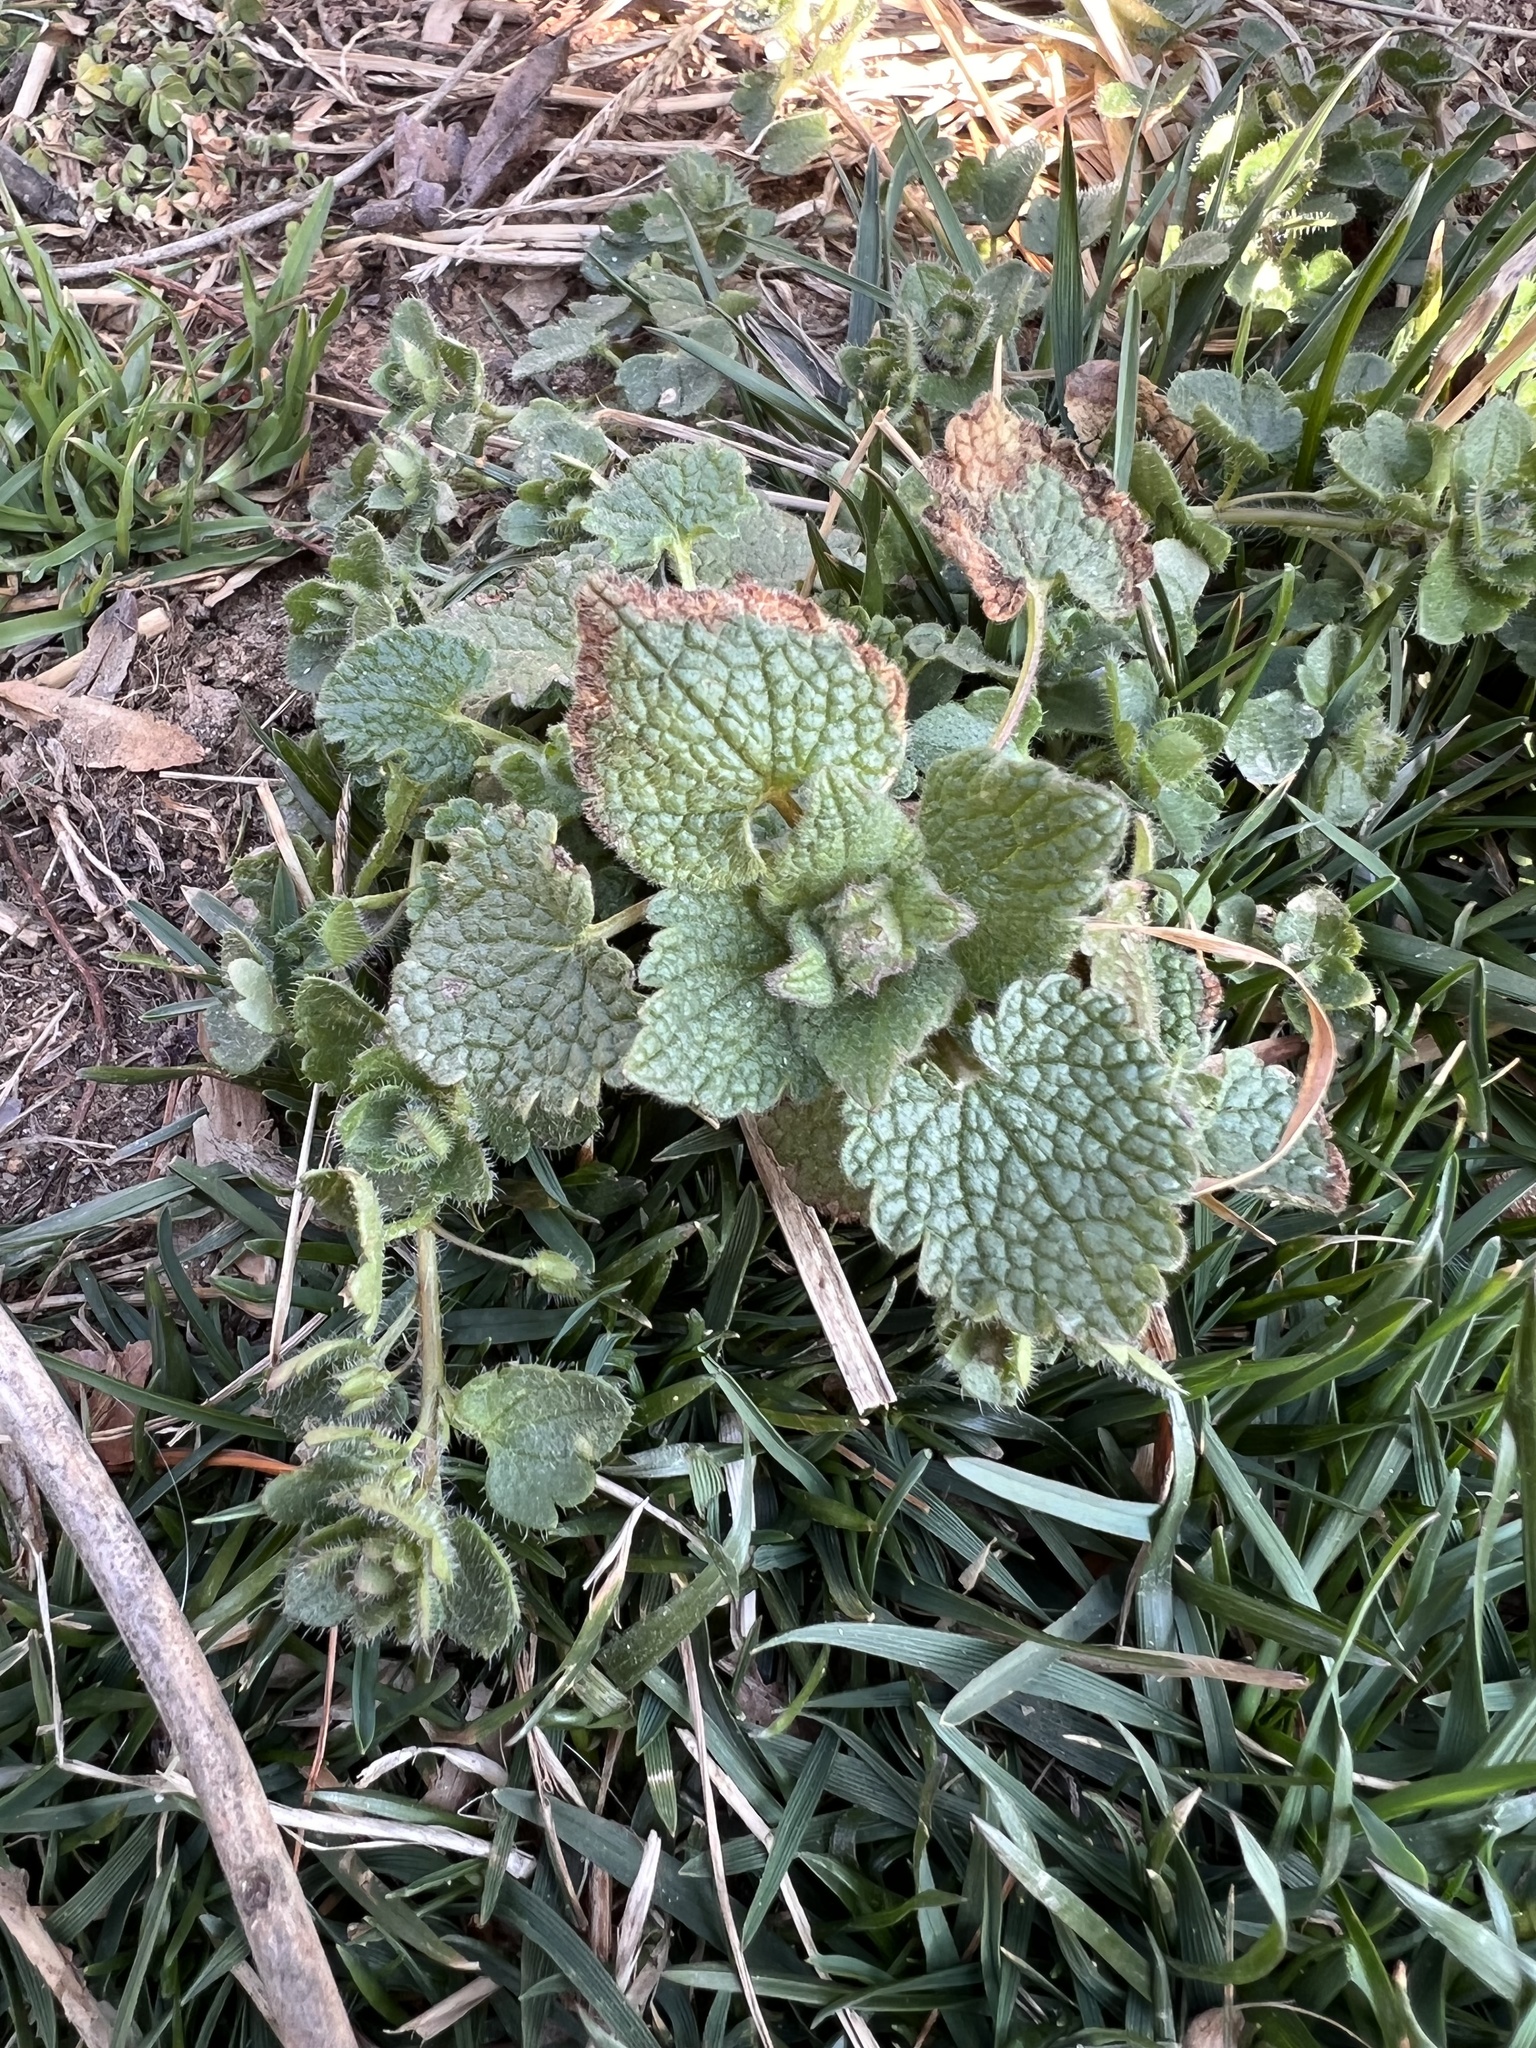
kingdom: Plantae
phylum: Tracheophyta
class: Magnoliopsida
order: Lamiales
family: Lamiaceae
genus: Lamium
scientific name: Lamium purpureum
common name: Red dead-nettle
